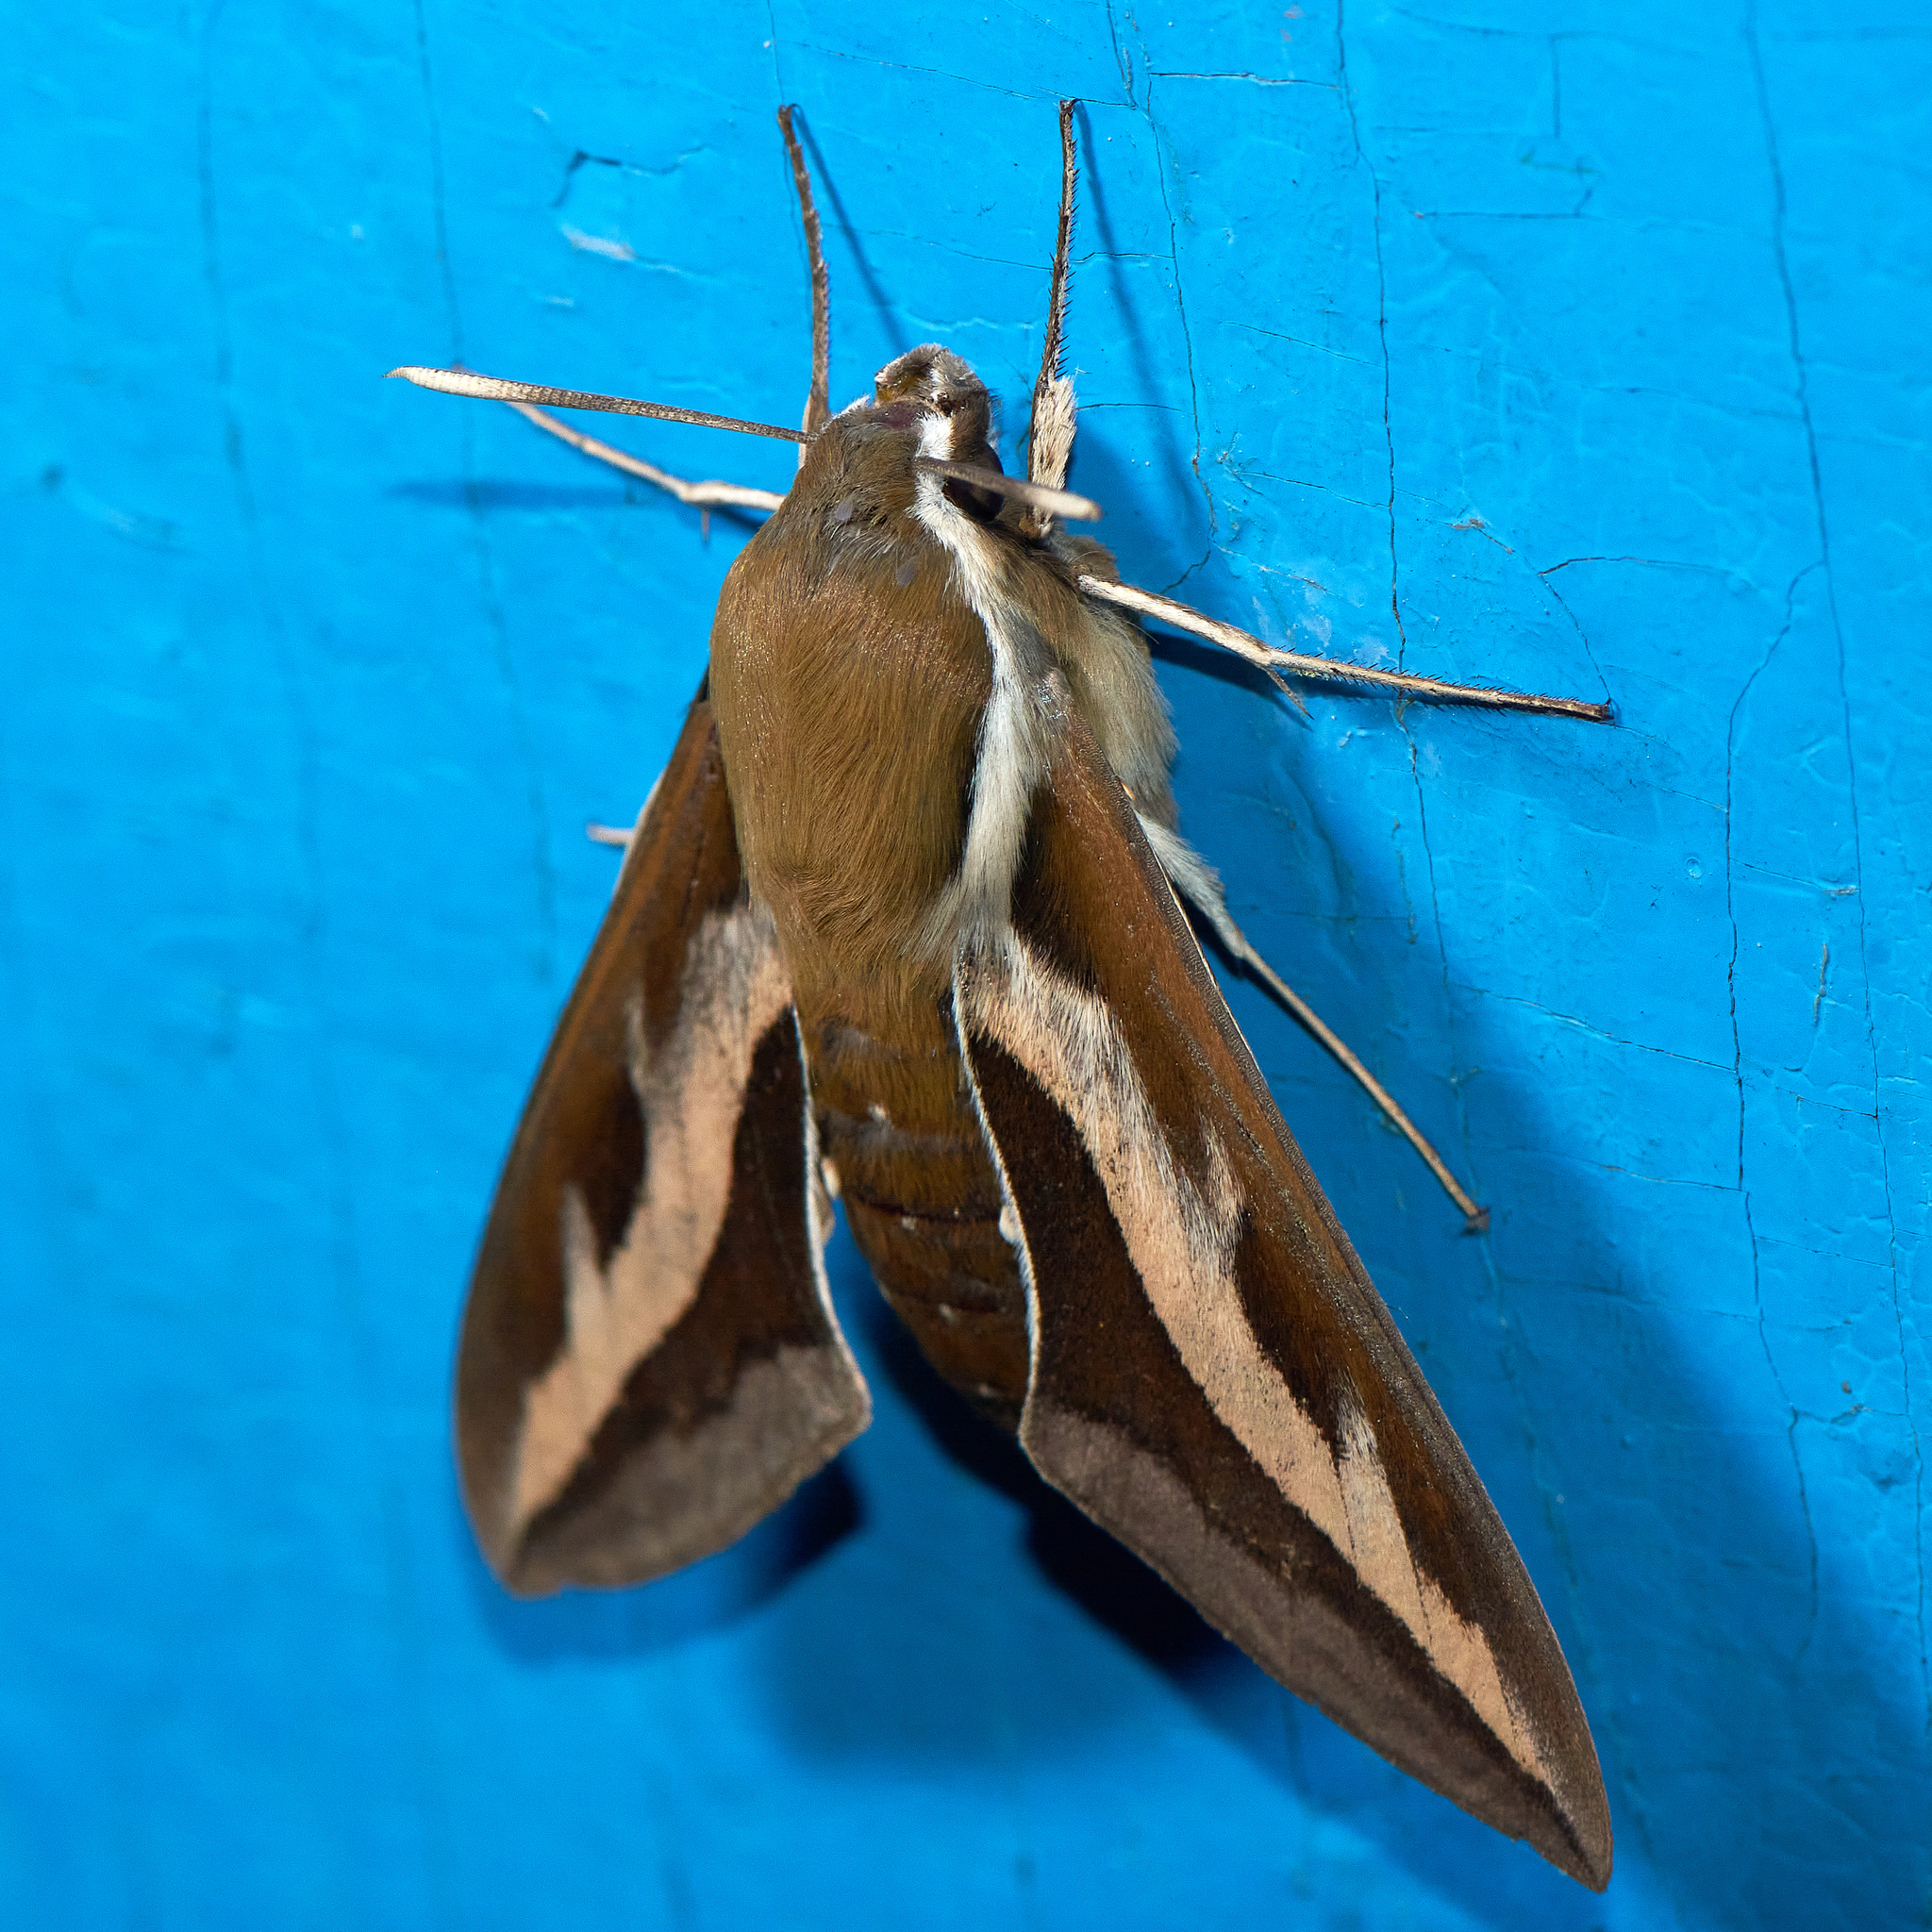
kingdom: Animalia
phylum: Arthropoda
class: Insecta
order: Lepidoptera
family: Sphingidae
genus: Hyles
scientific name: Hyles gallii
